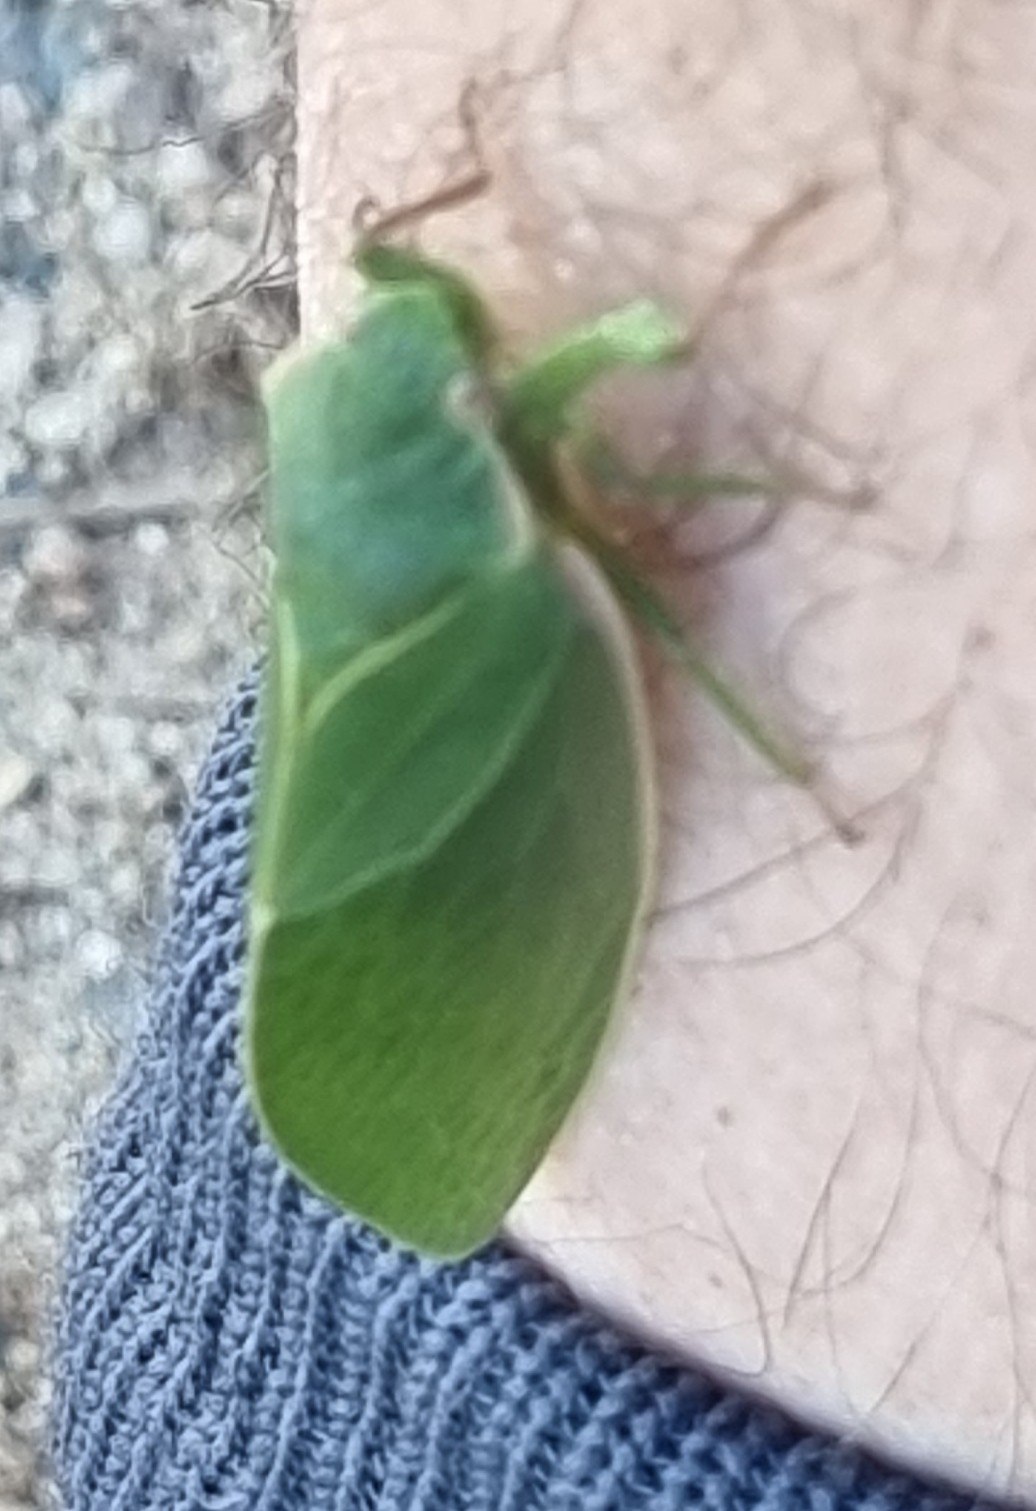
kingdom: Animalia
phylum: Arthropoda
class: Insecta
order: Hemiptera
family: Cicadidae
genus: Cystosoma
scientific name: Cystosoma saundersii
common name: Bladder cicada
